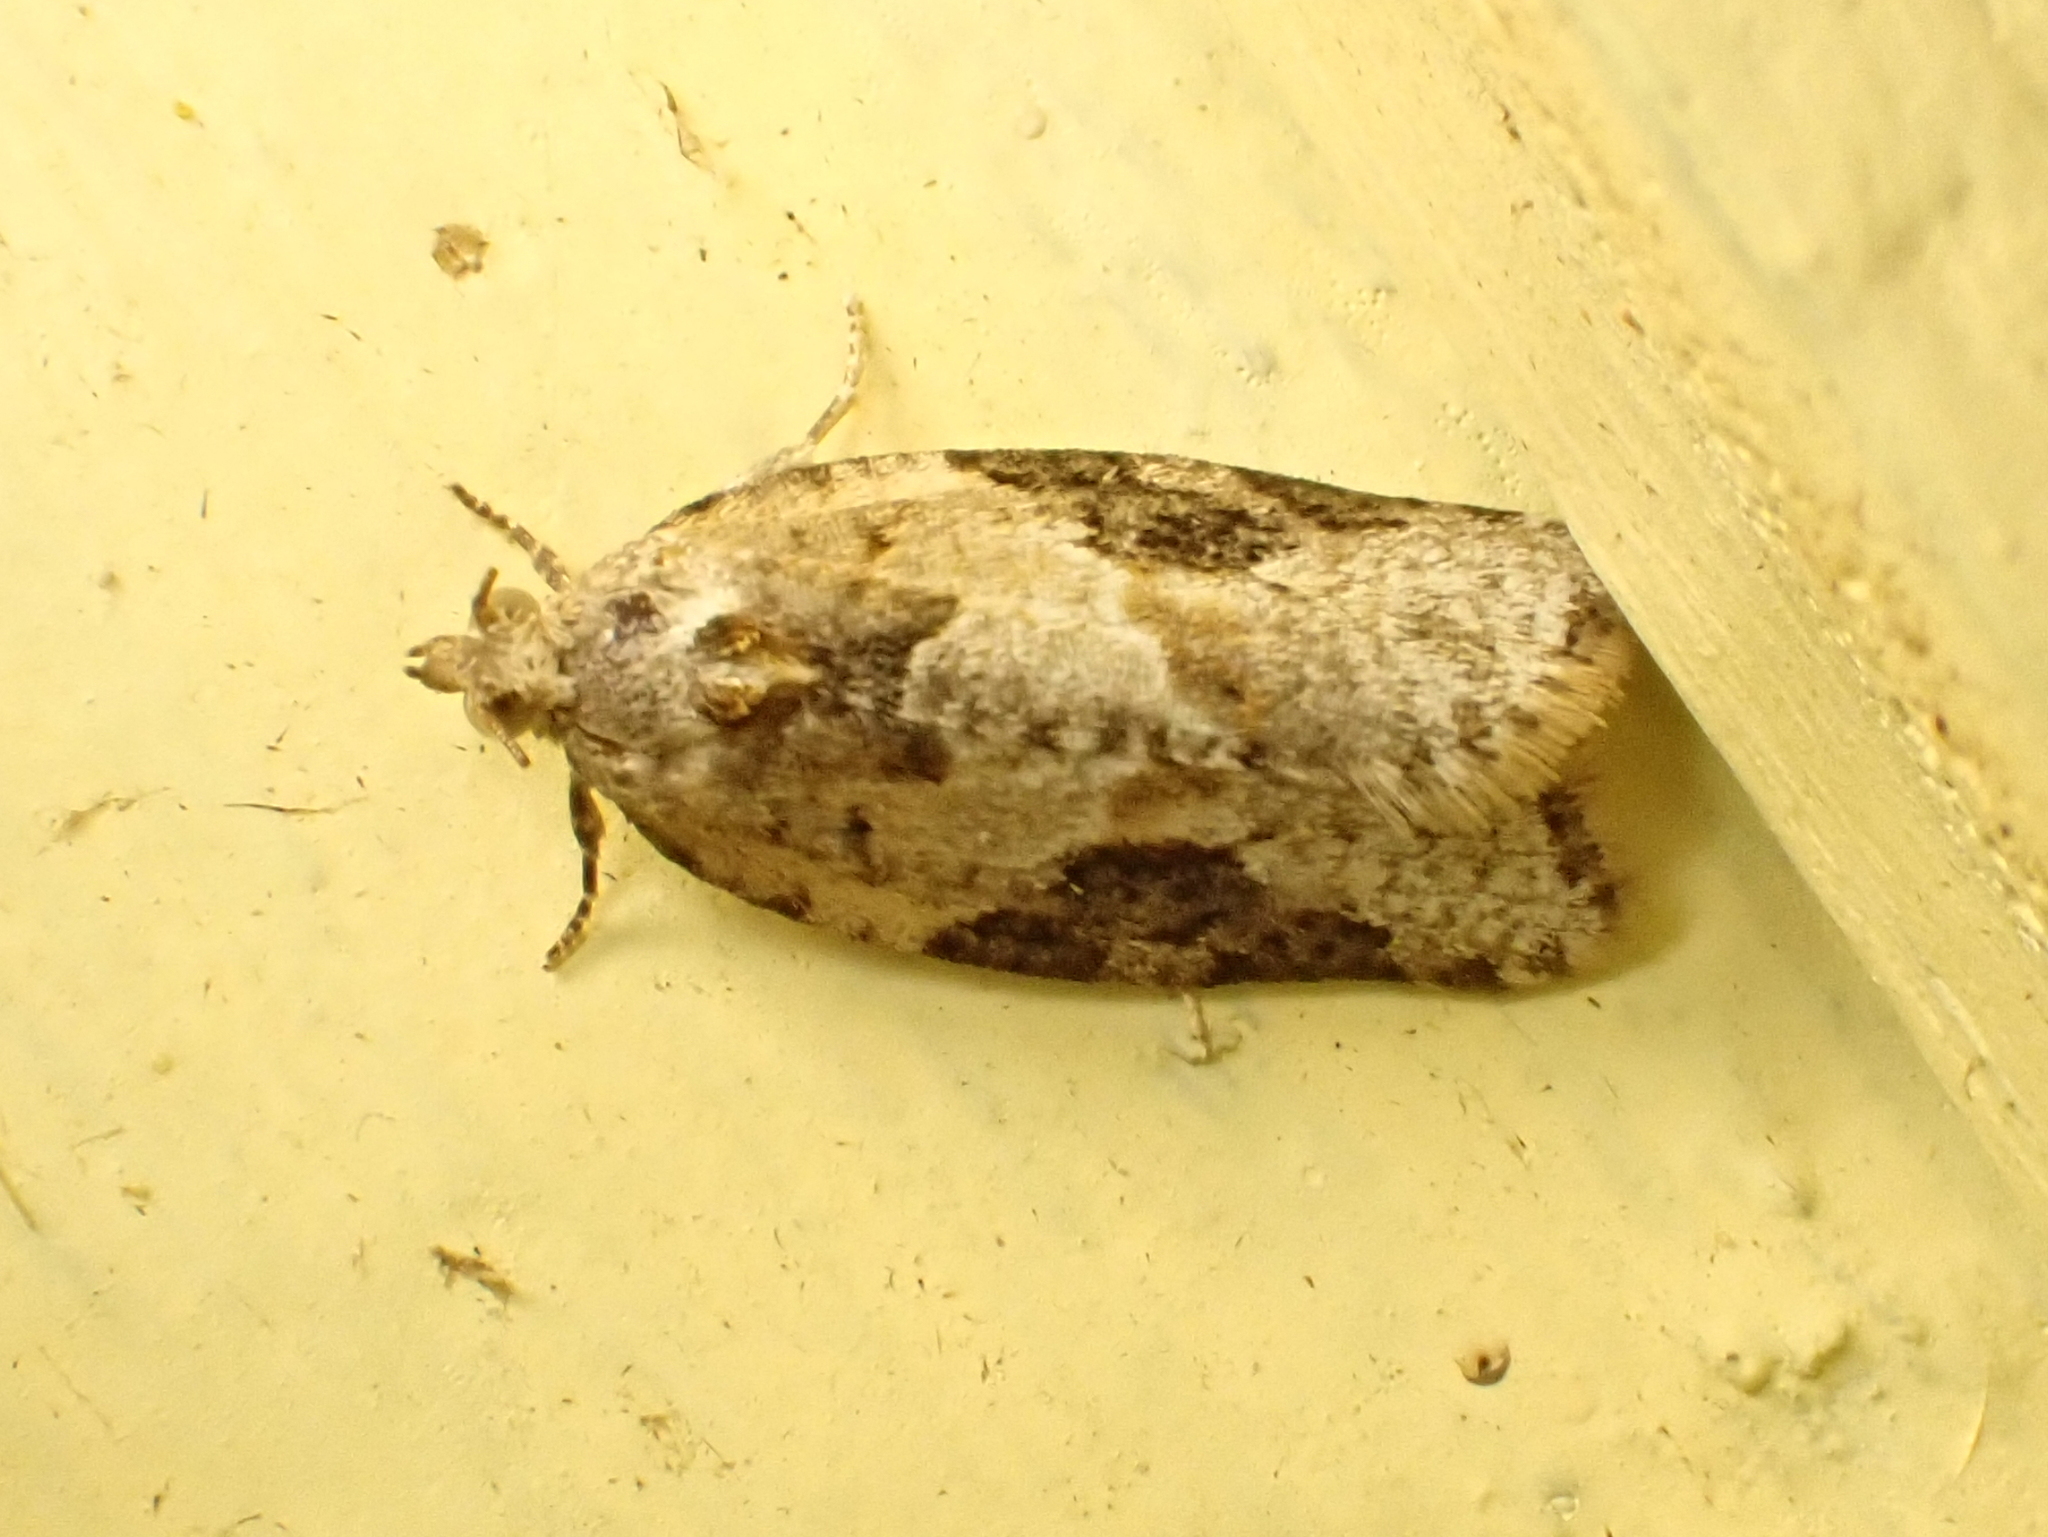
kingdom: Animalia
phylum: Arthropoda
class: Insecta
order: Lepidoptera
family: Tortricidae
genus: Argyrotaenia
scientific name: Argyrotaenia mariana
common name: Gray-banded leafroller moth
